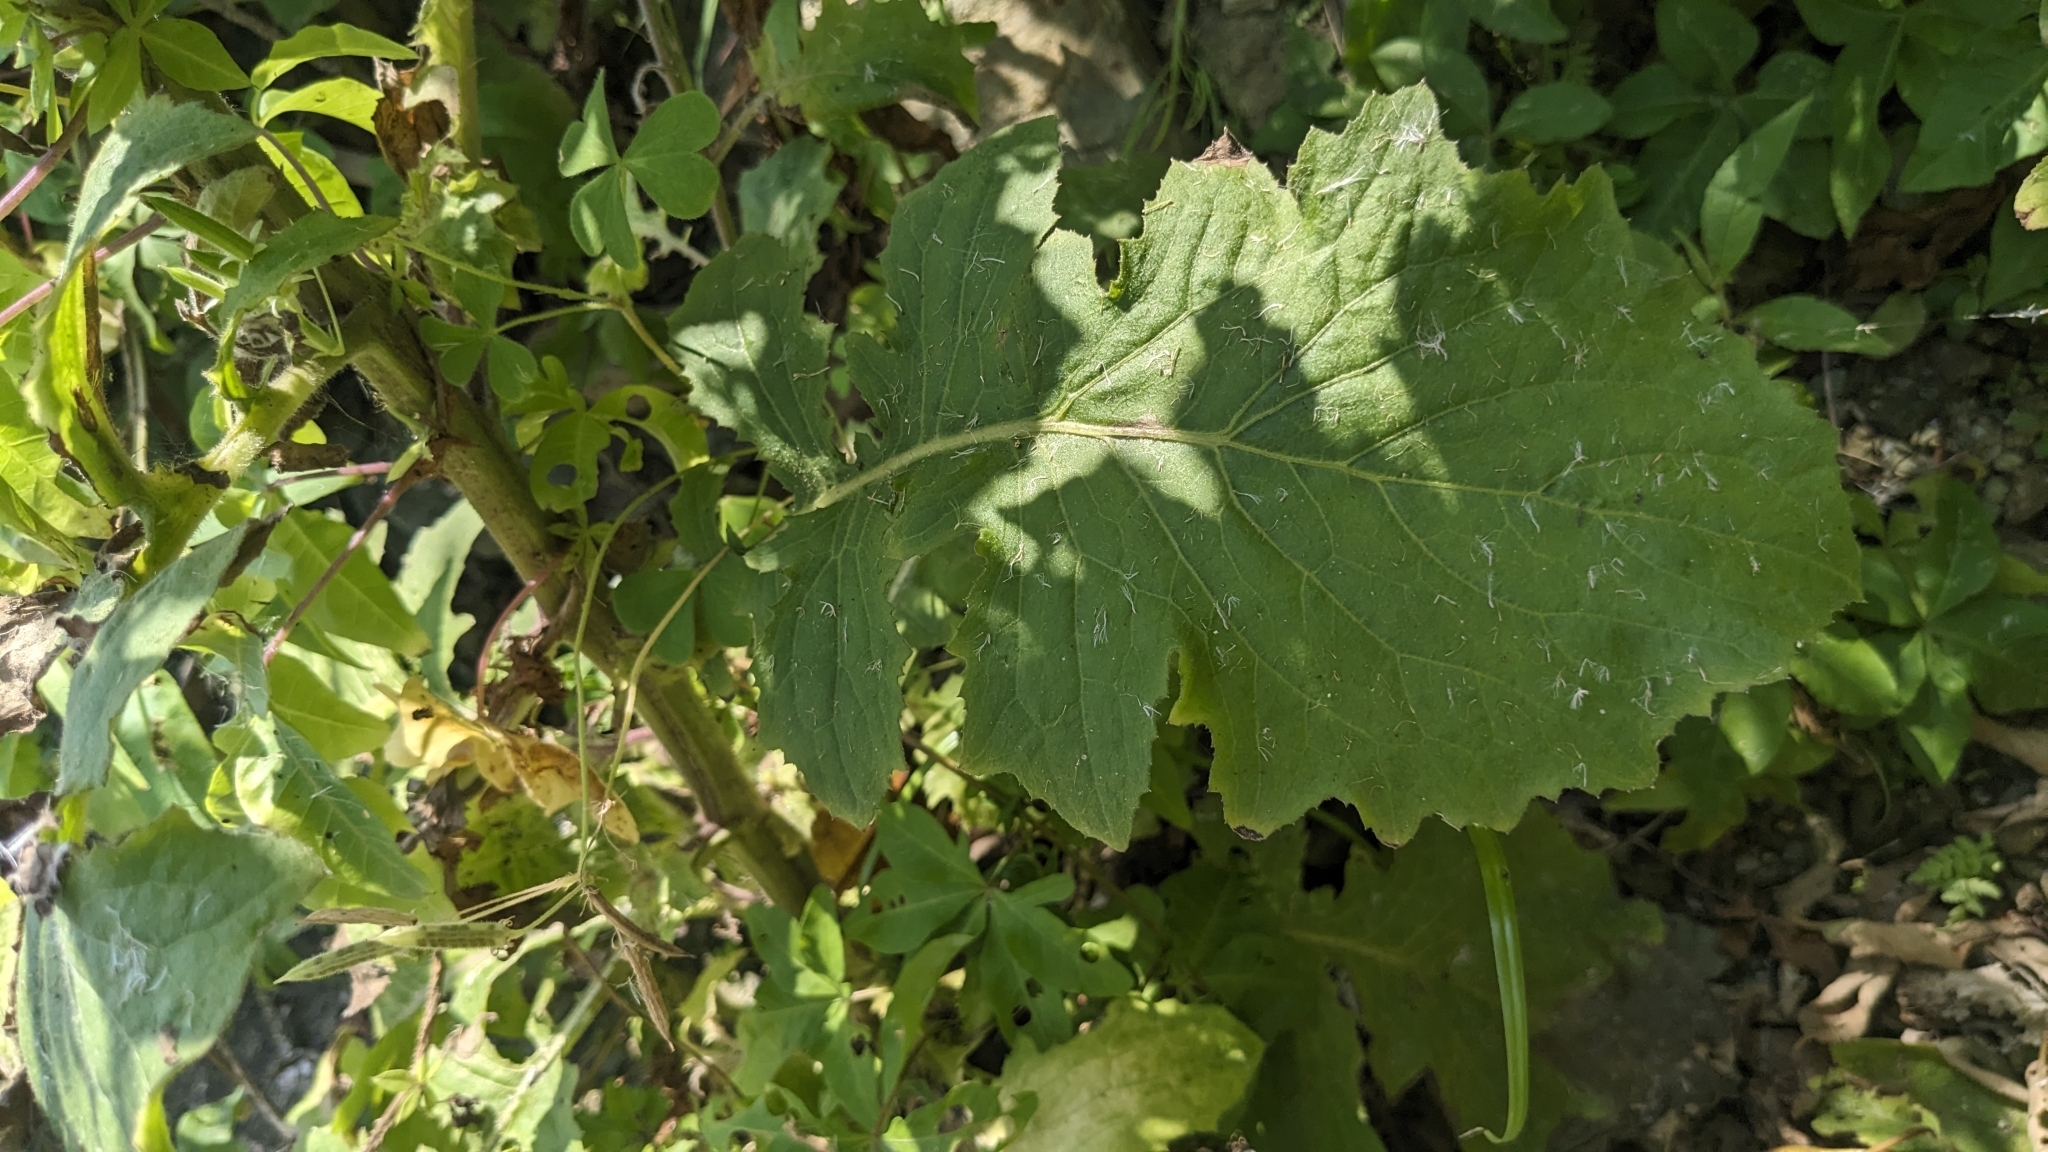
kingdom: Plantae
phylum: Tracheophyta
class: Magnoliopsida
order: Asterales
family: Asteraceae
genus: Blumea
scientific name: Blumea sinuata
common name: Cutleaf false oxtongue
